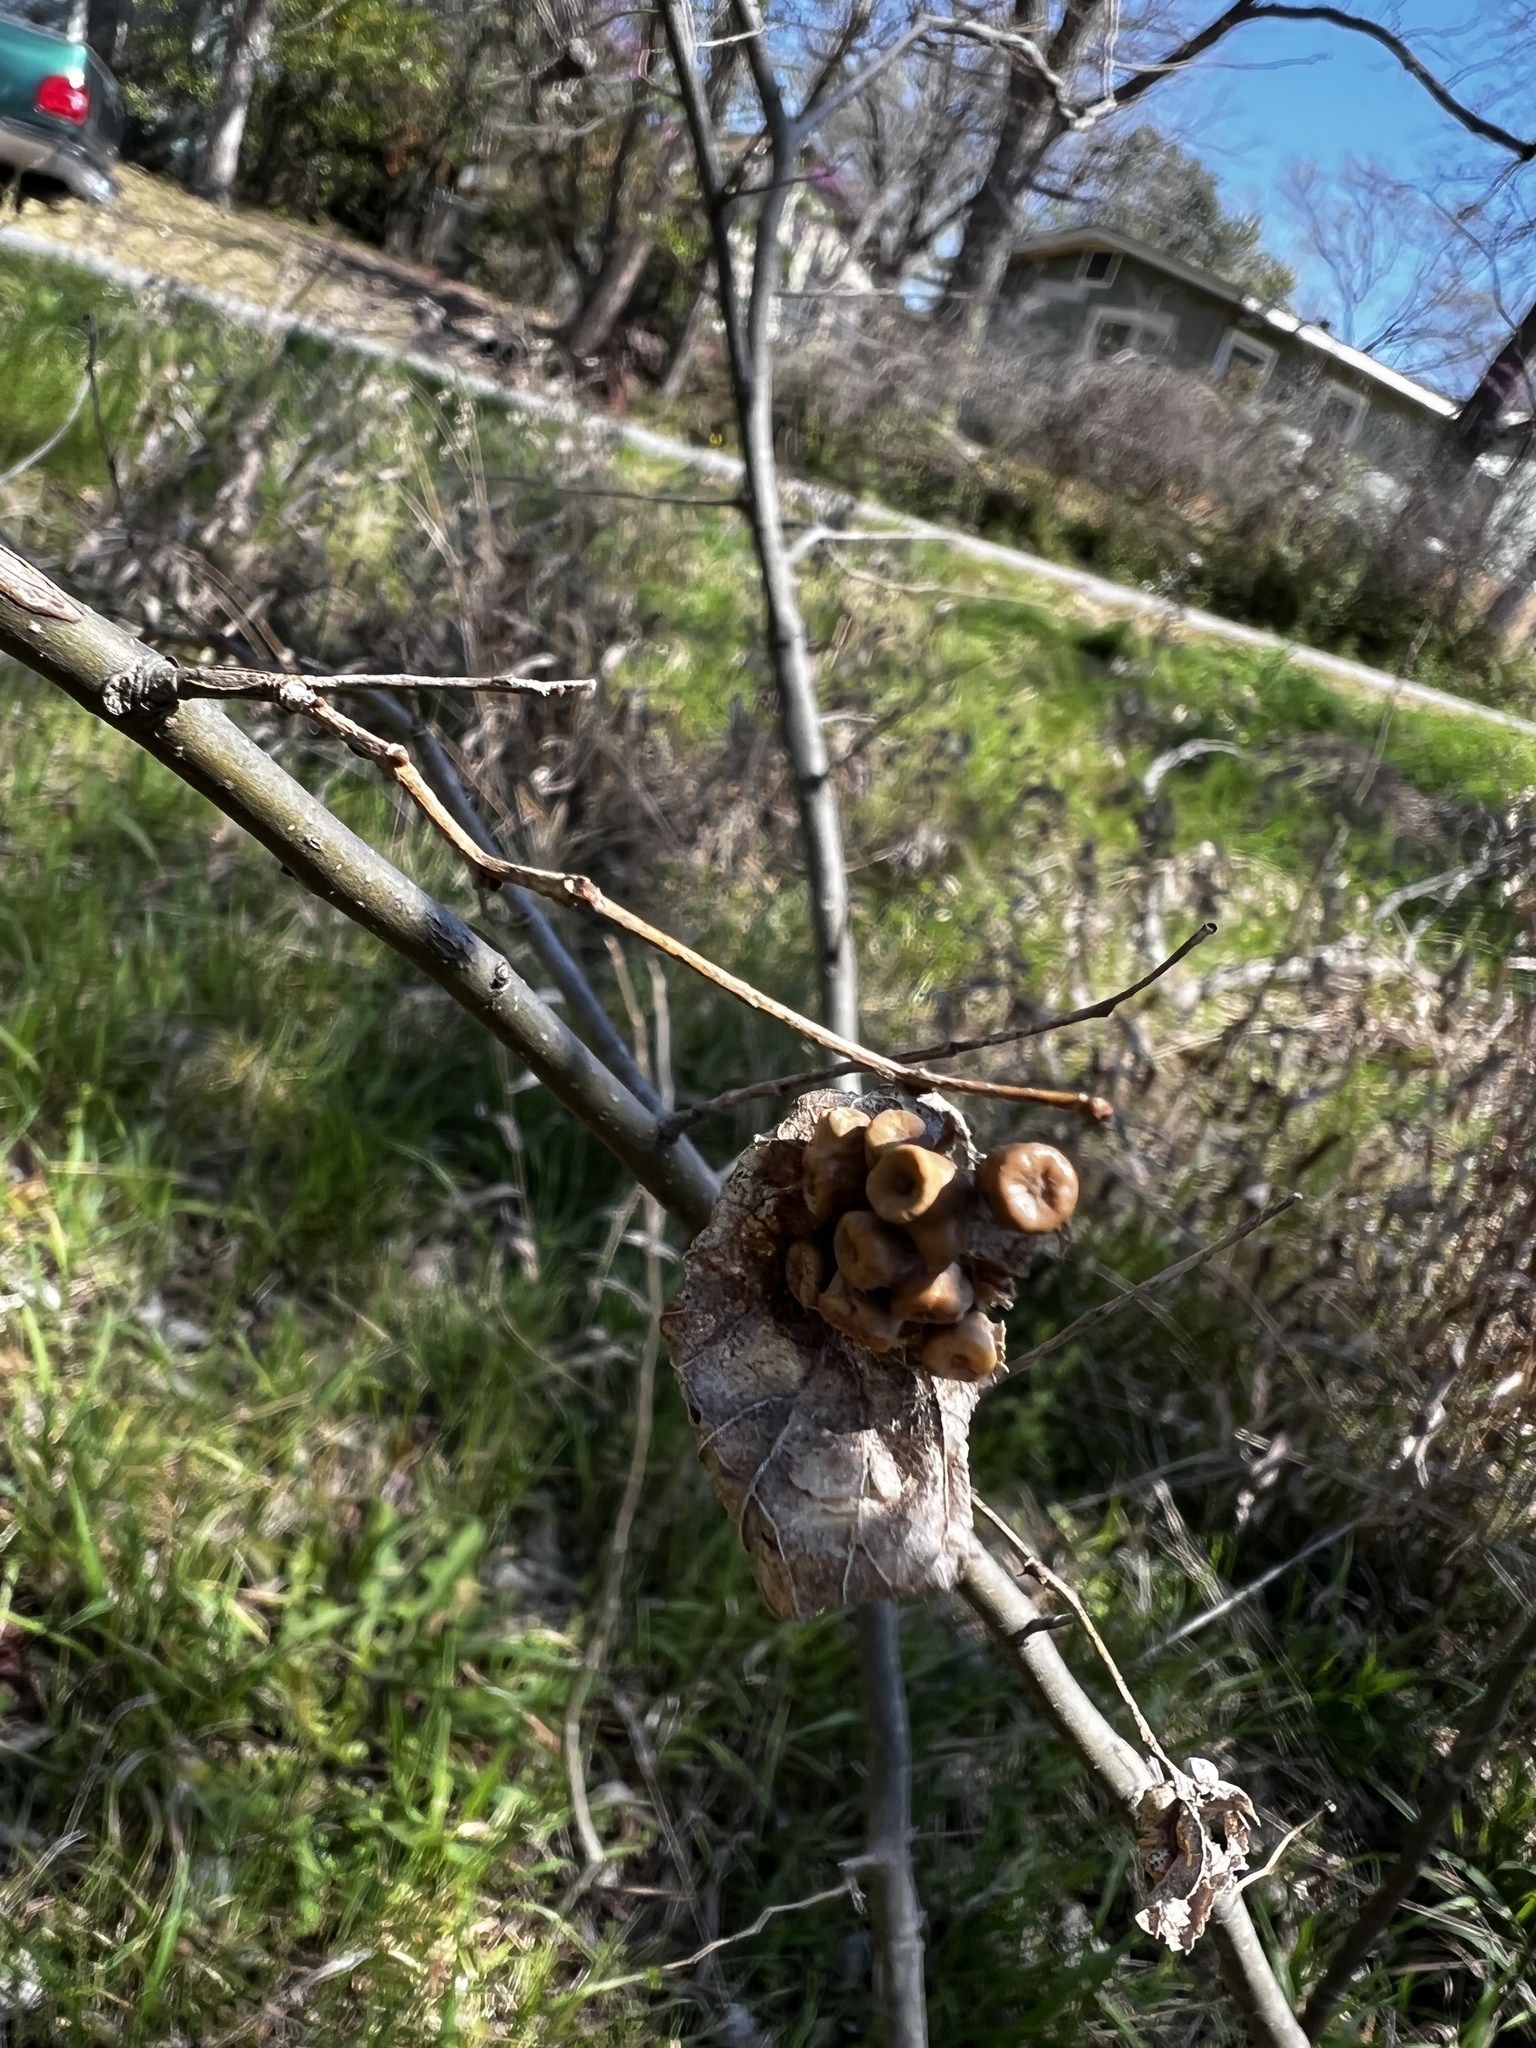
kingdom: Animalia
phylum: Arthropoda
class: Insecta
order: Hemiptera
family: Aphalaridae
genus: Pachypsylla
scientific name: Pachypsylla celtidismamma
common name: Hackberry nipplegall psyllid
